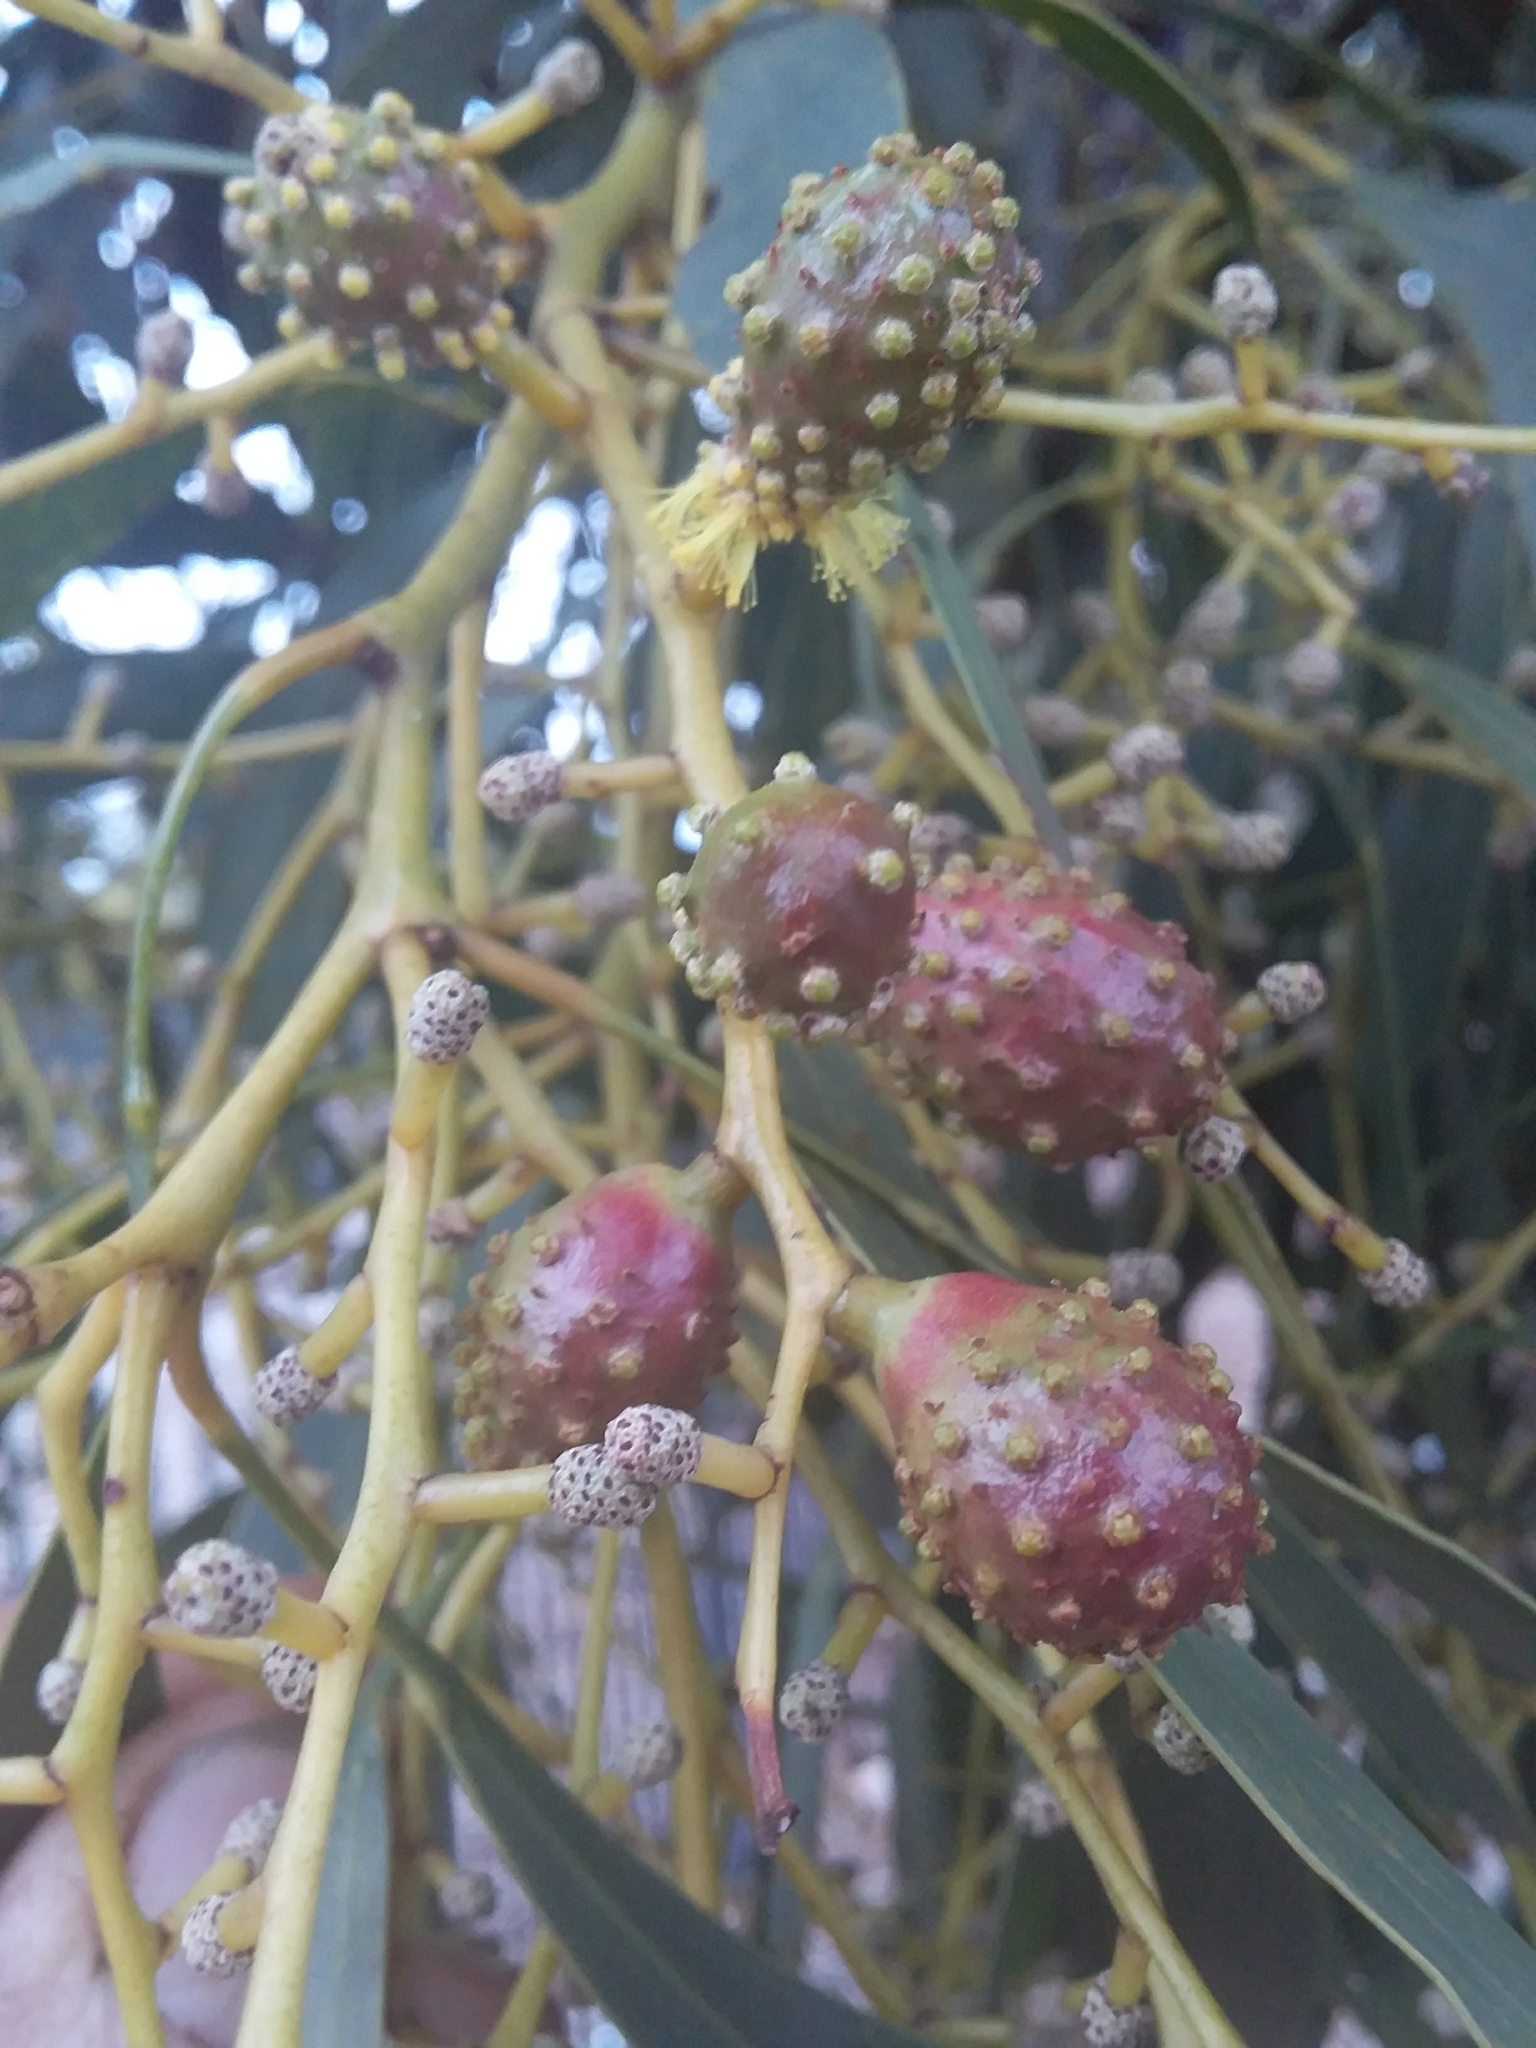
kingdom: Animalia
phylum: Arthropoda
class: Insecta
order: Hymenoptera
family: Pteromalidae
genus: Trichilogaster
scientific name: Trichilogaster signiventris
